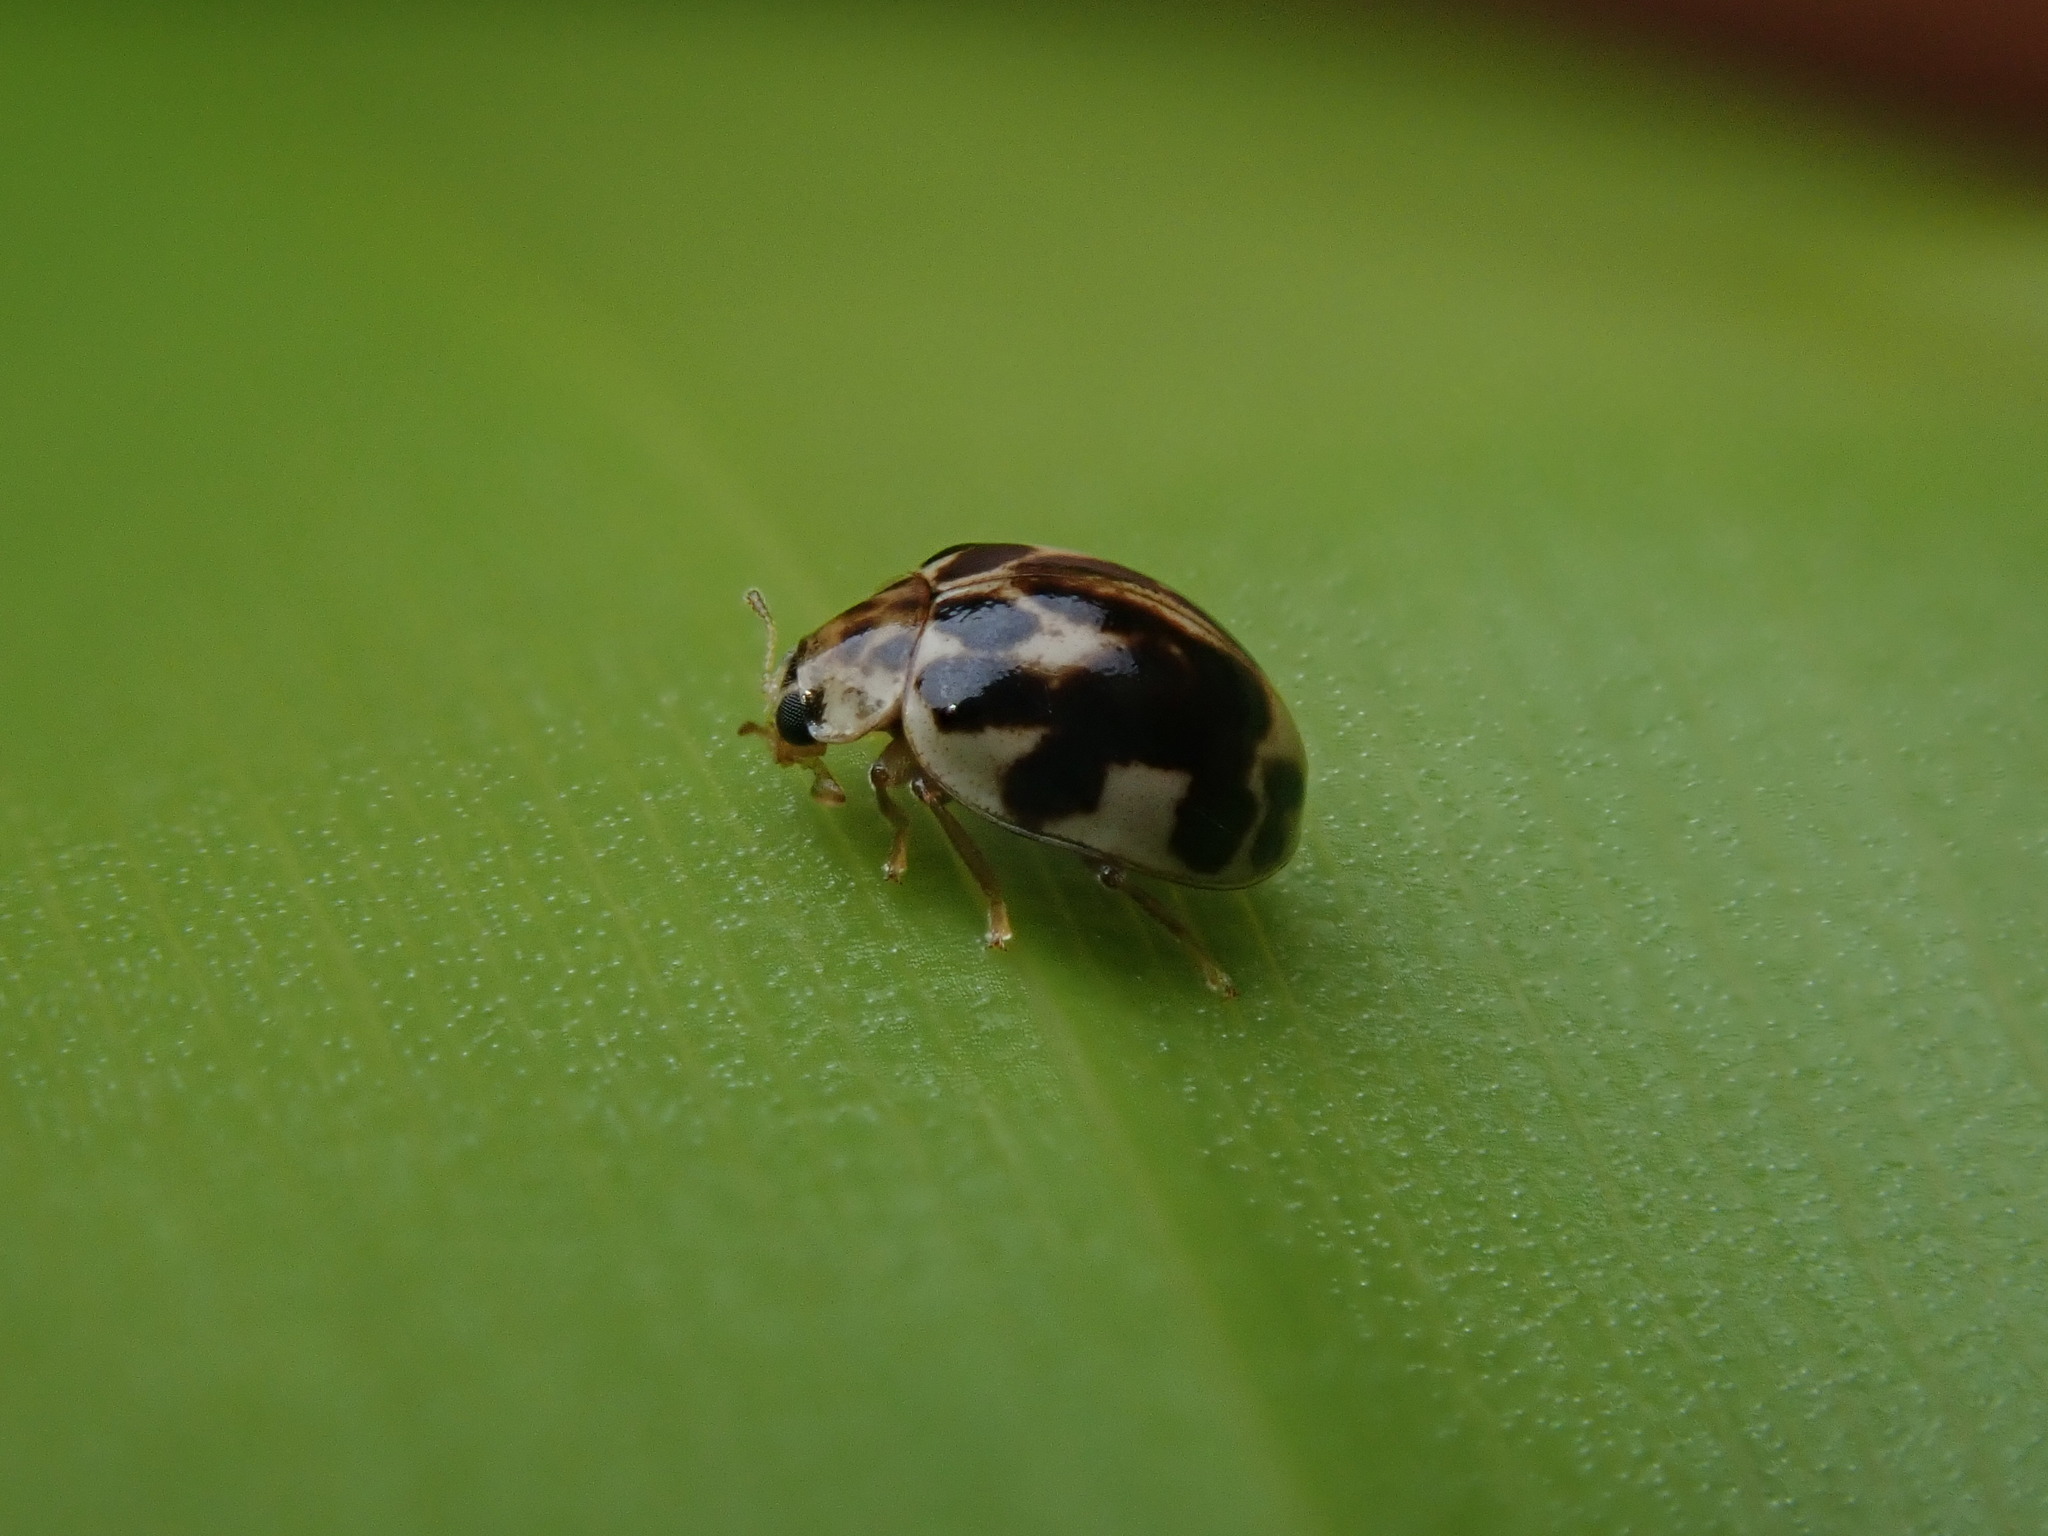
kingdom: Animalia
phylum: Arthropoda
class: Insecta
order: Coleoptera
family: Coccinellidae
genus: Psyllobora
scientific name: Psyllobora vigintimaculata
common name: Ladybird beetle
